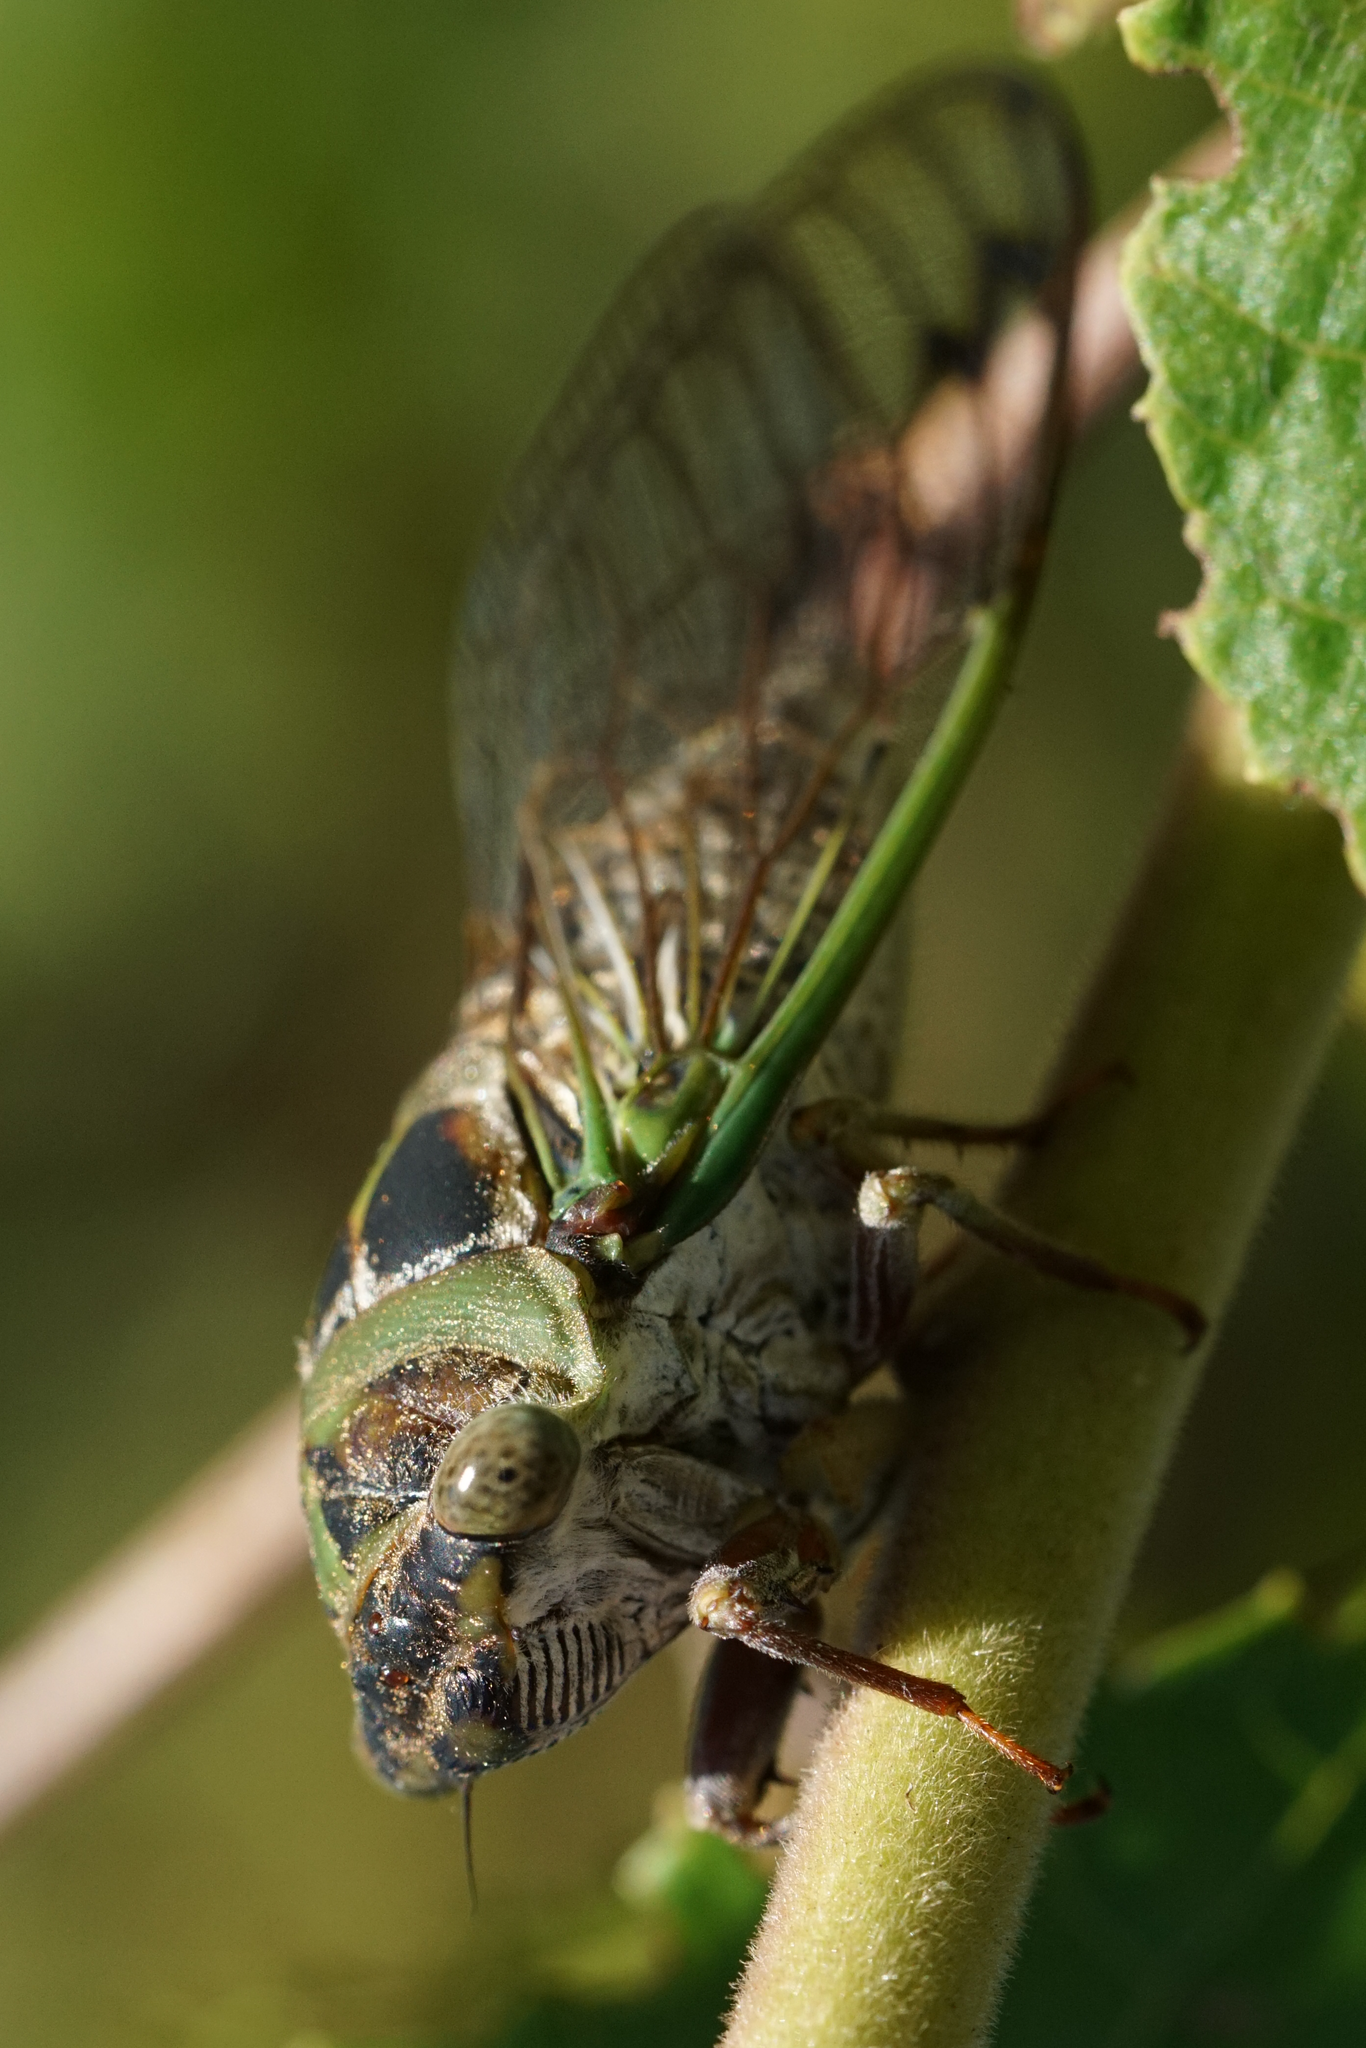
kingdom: Animalia
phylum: Arthropoda
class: Insecta
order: Hemiptera
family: Cicadidae
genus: Neotibicen
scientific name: Neotibicen davisi
